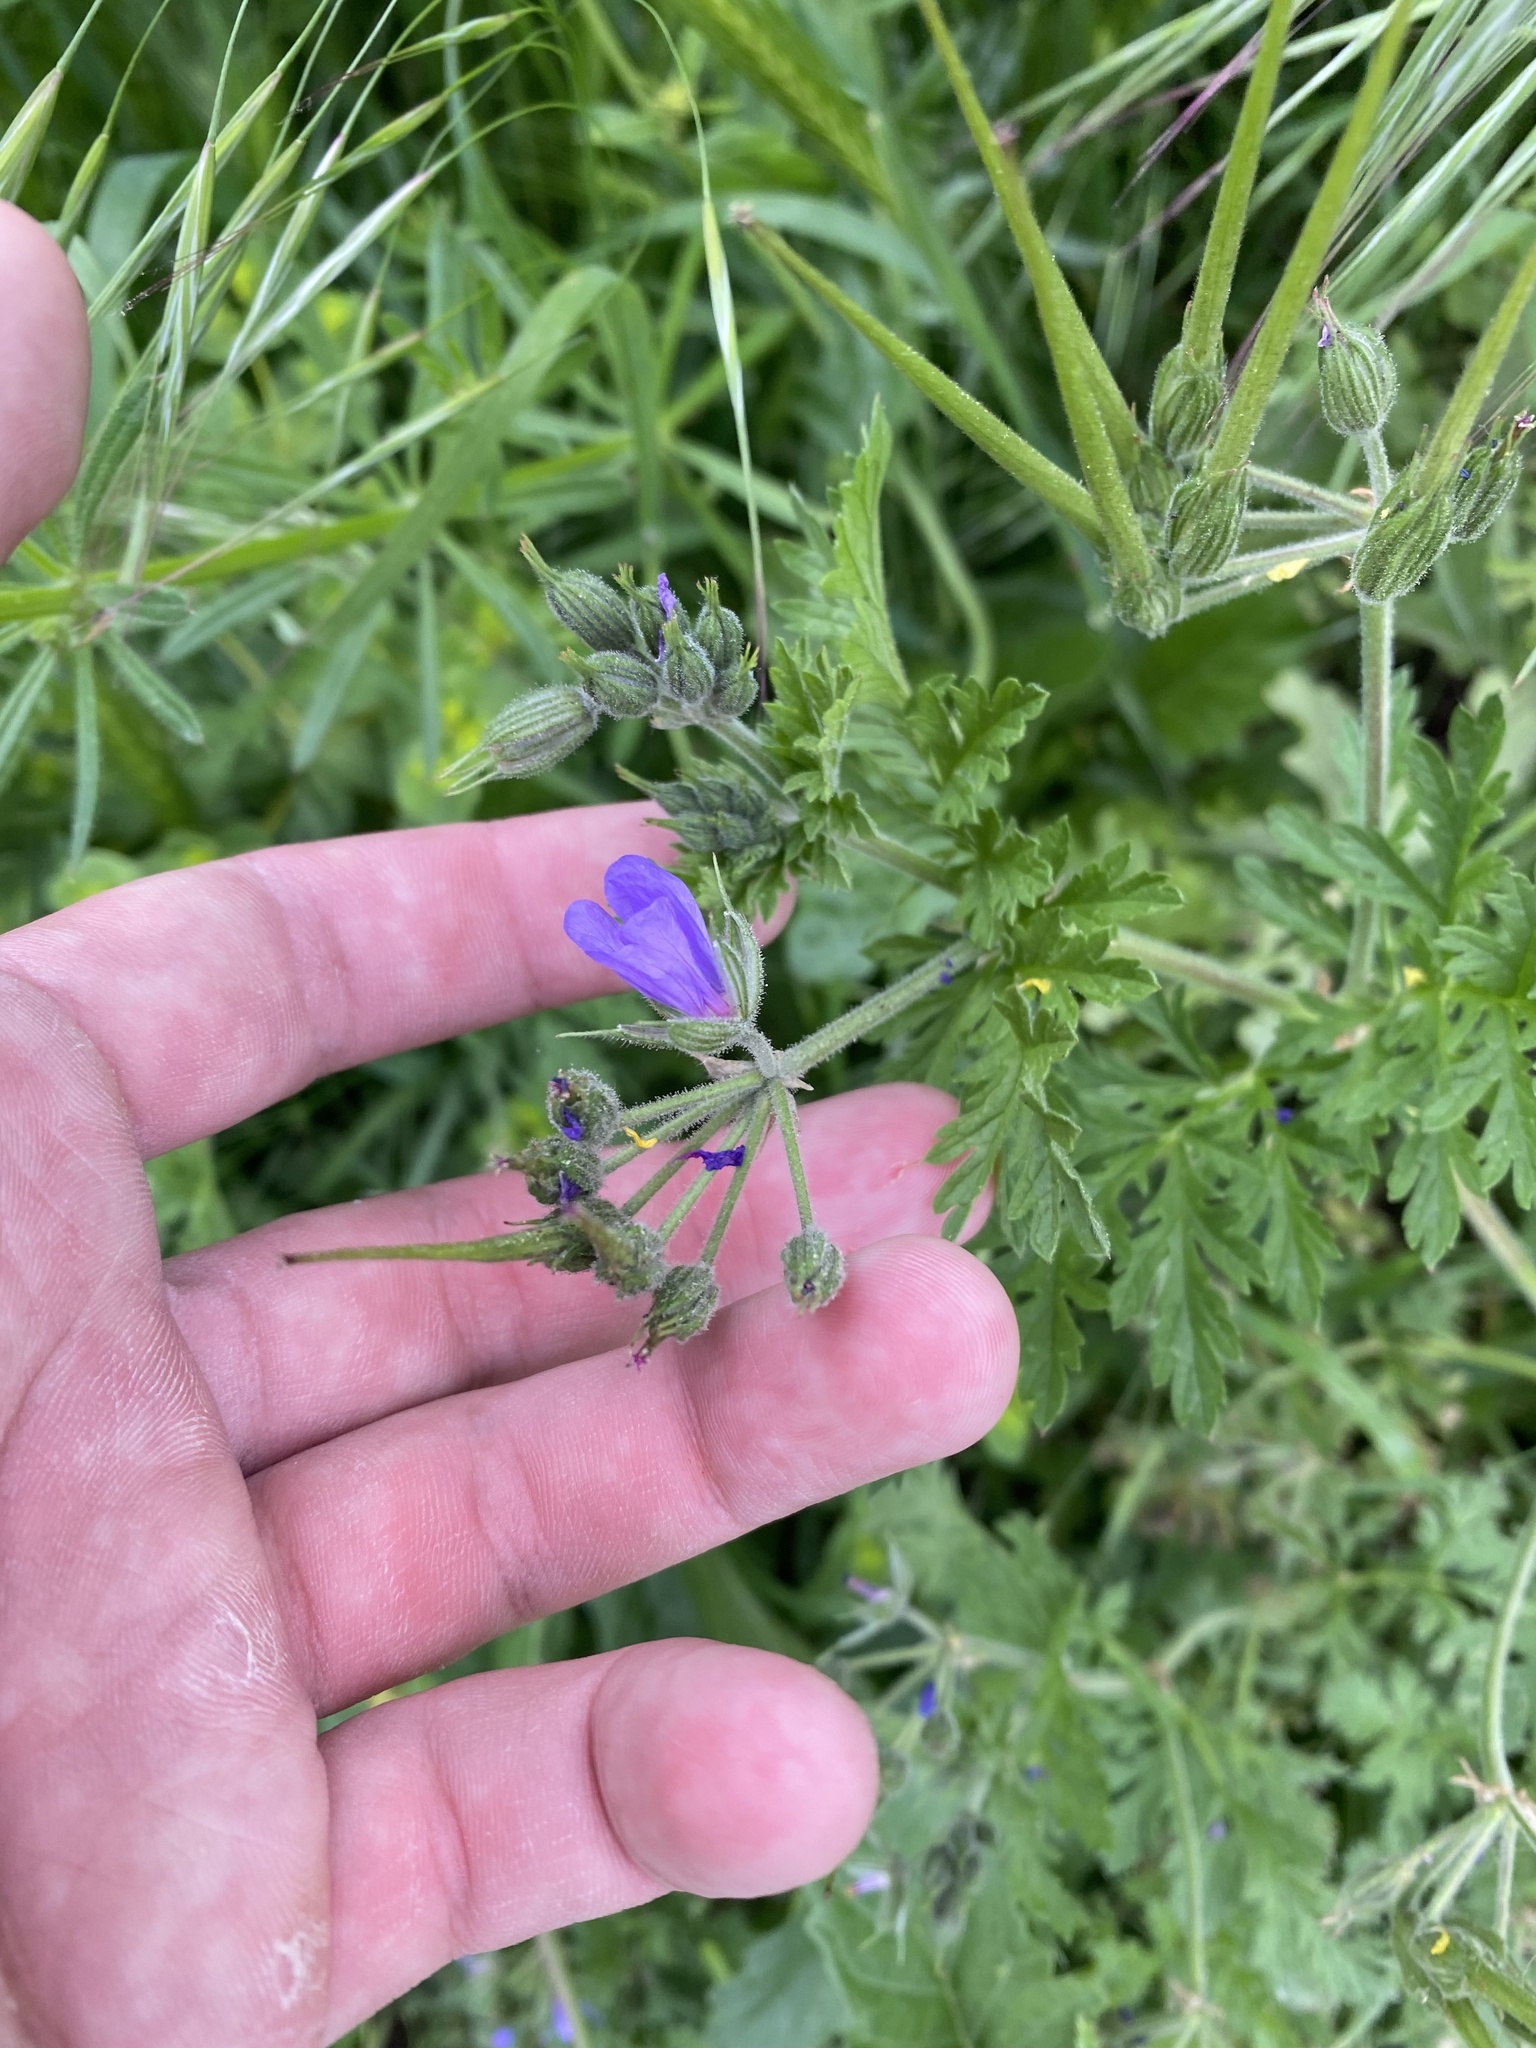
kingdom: Plantae
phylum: Tracheophyta
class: Magnoliopsida
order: Geraniales
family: Geraniaceae
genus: Erodium
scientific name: Erodium ciconium
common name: Common stork's bill
